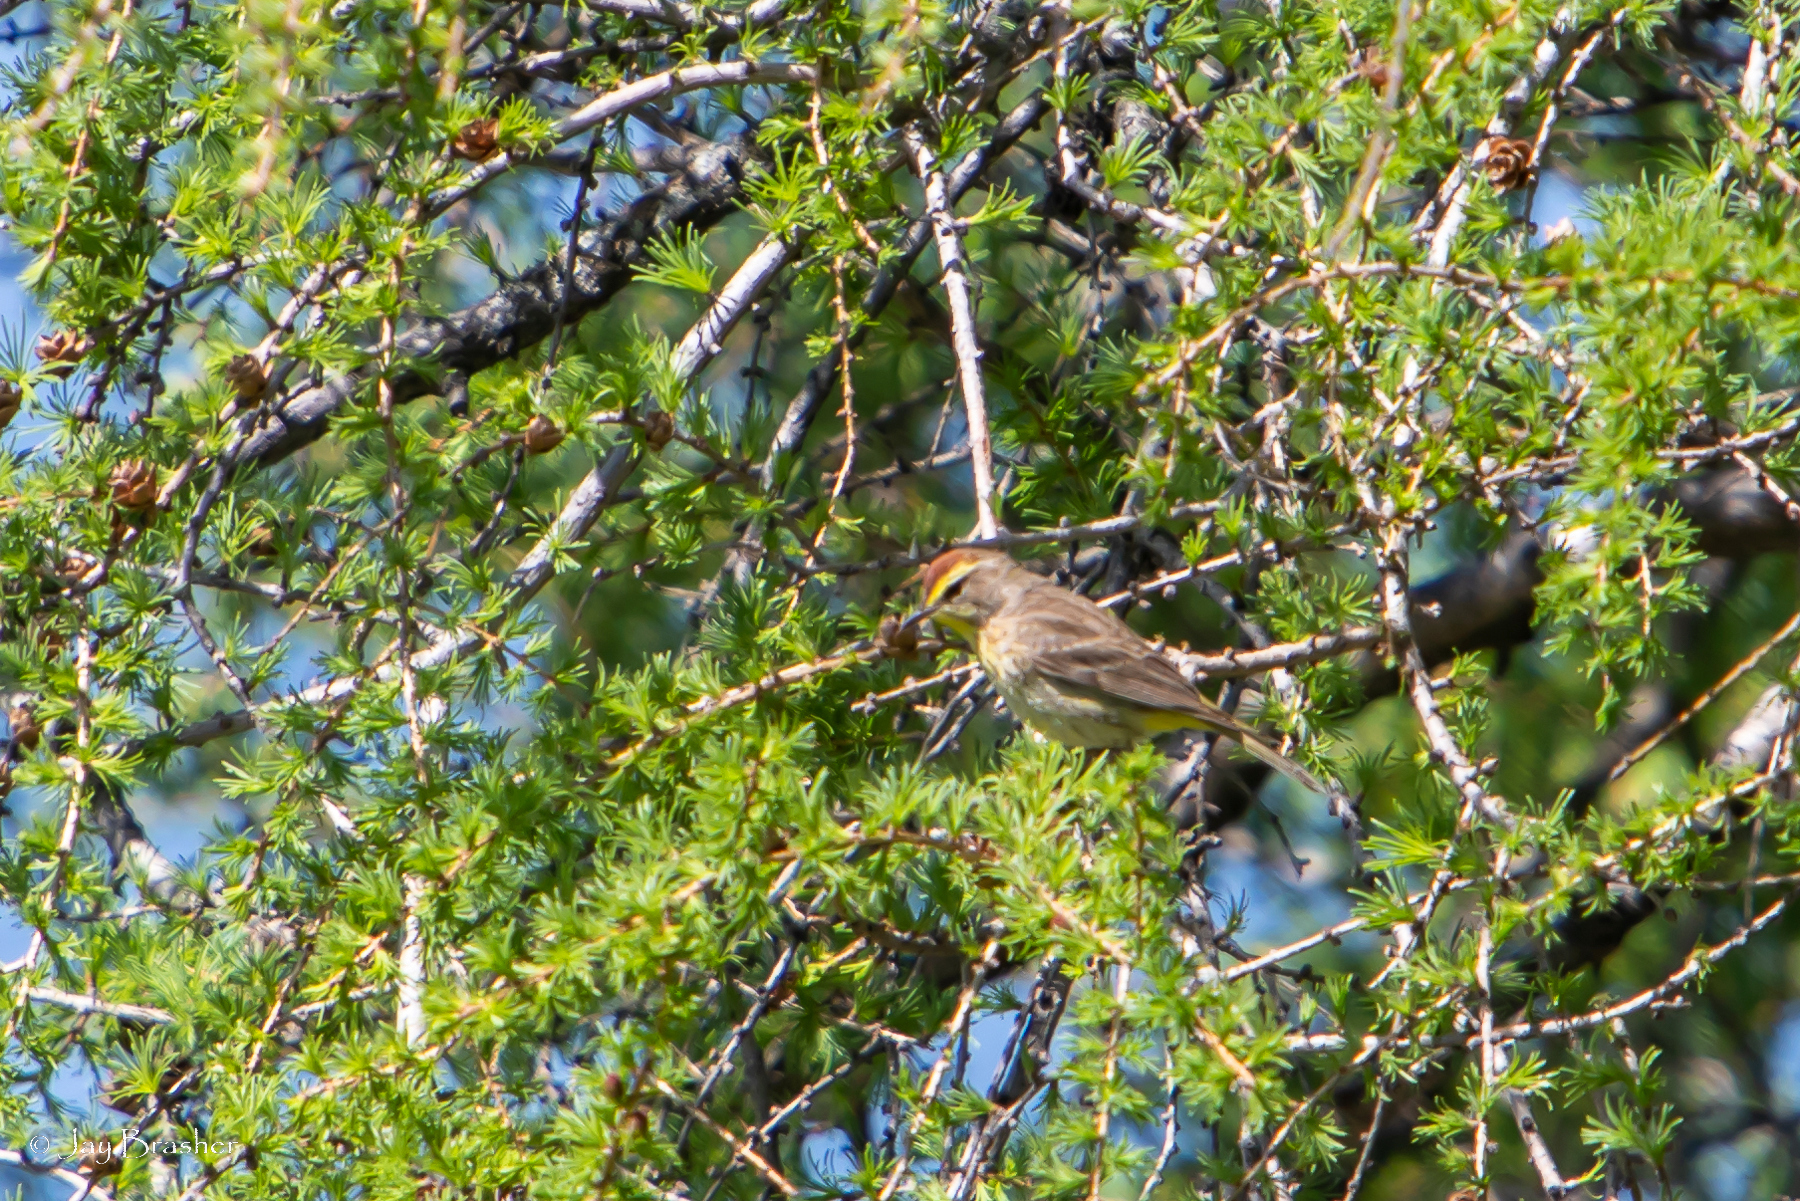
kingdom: Animalia
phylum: Chordata
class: Aves
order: Passeriformes
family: Parulidae
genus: Setophaga
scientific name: Setophaga palmarum
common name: Palm warbler
